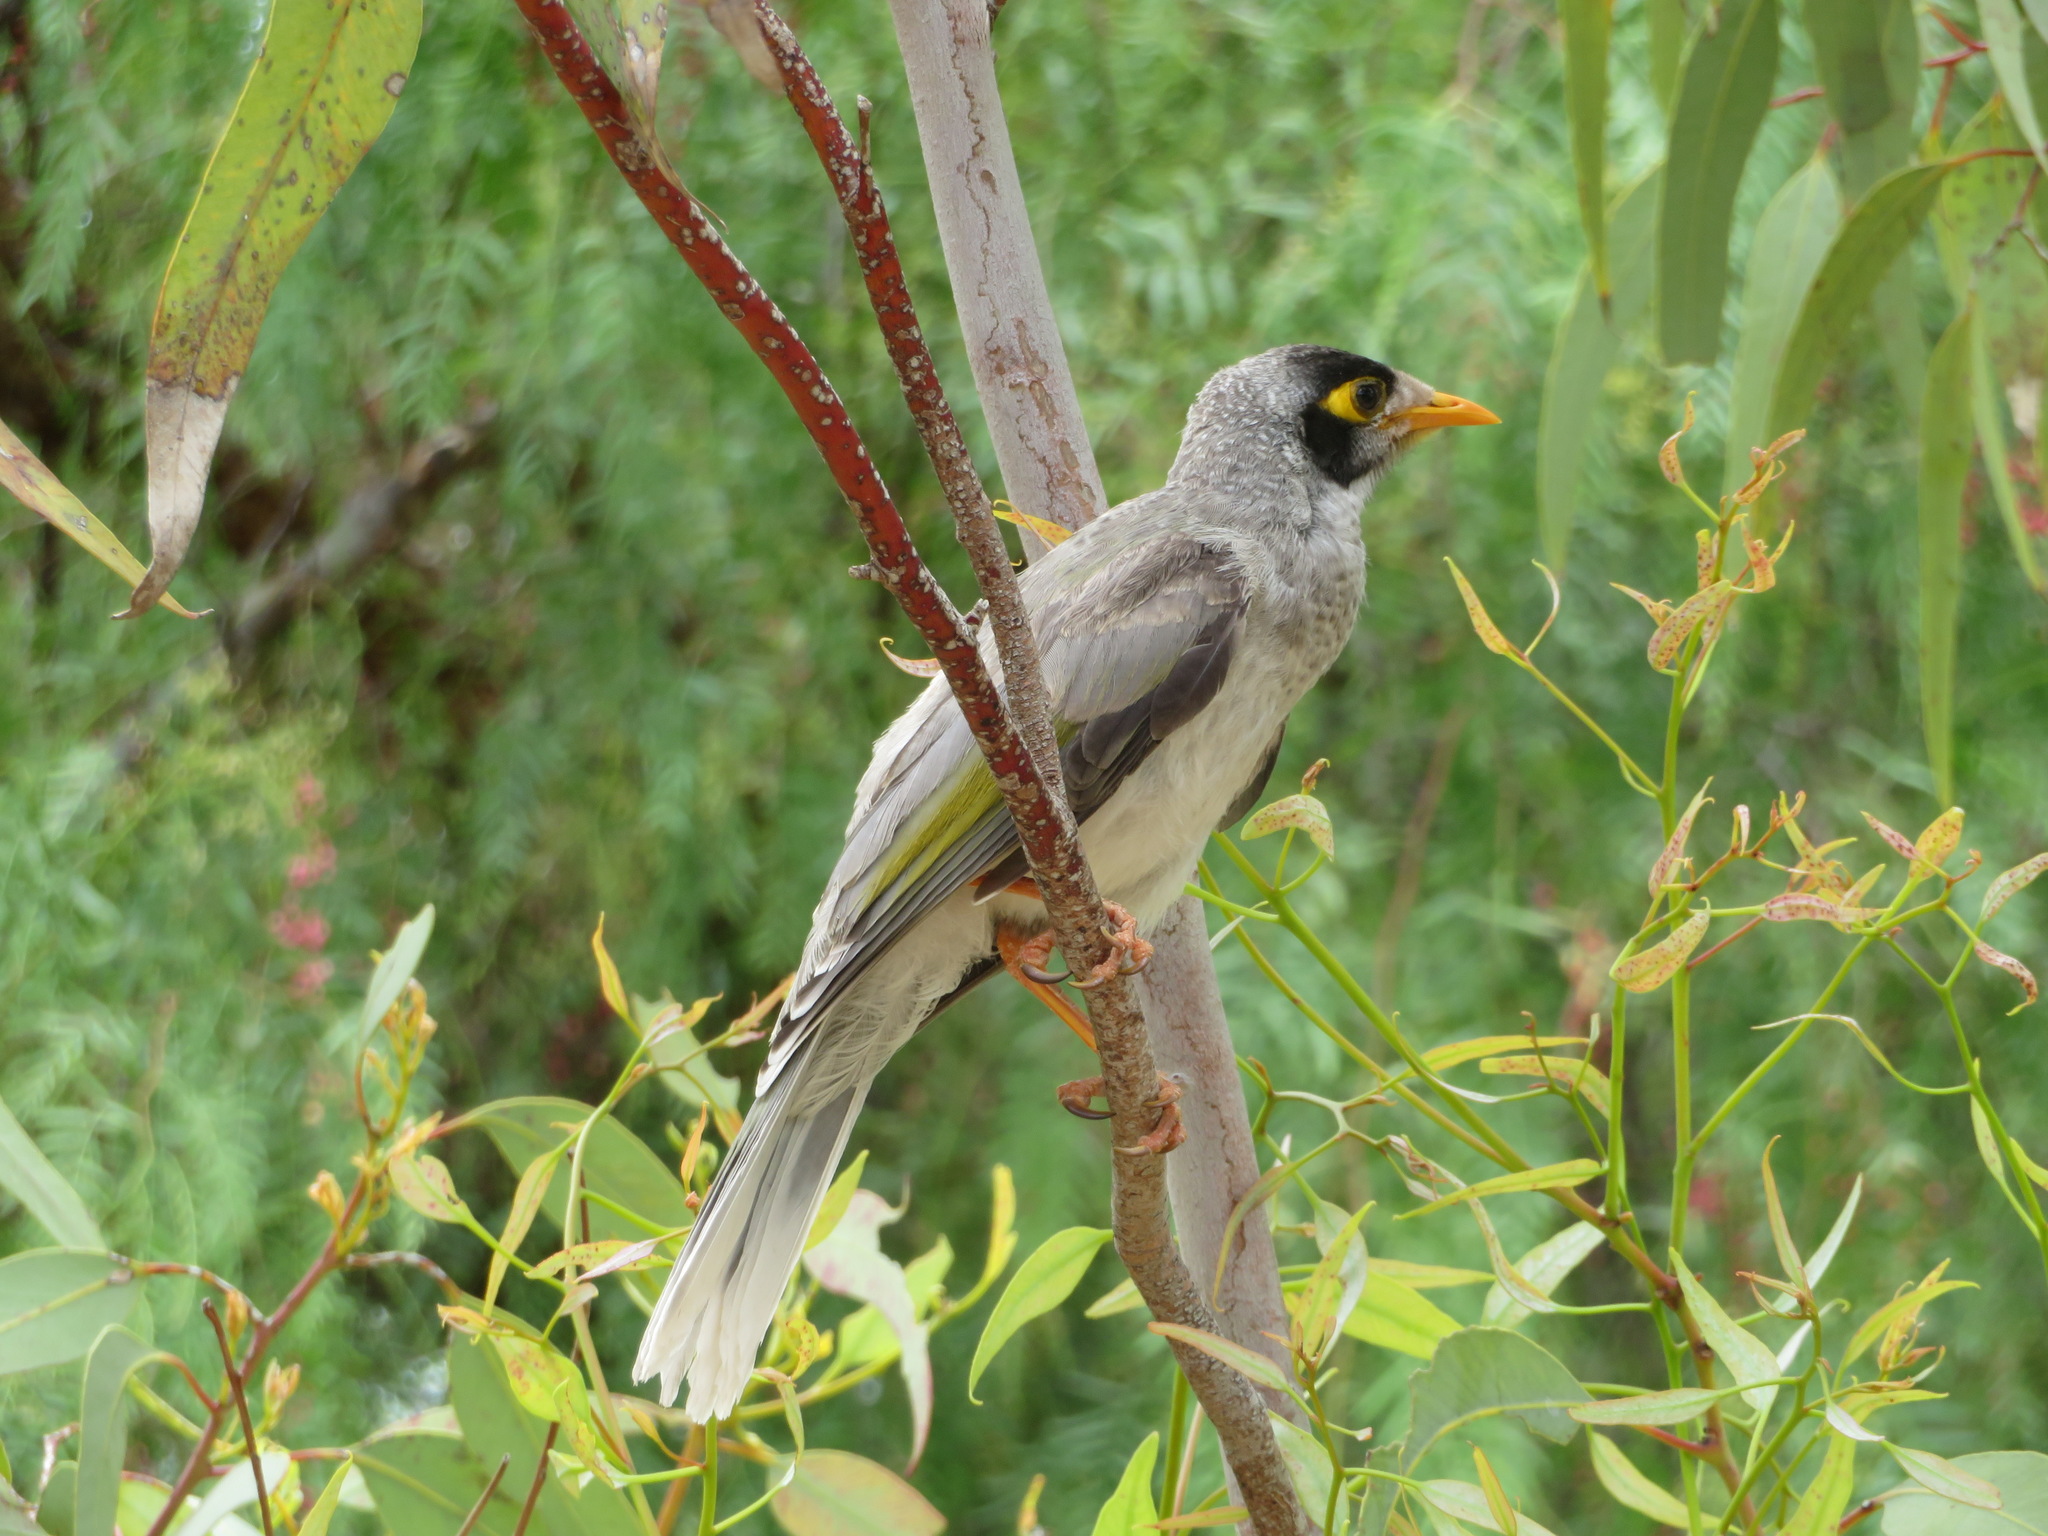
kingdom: Animalia
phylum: Chordata
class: Aves
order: Passeriformes
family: Meliphagidae
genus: Manorina
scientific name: Manorina melanocephala
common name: Noisy miner
